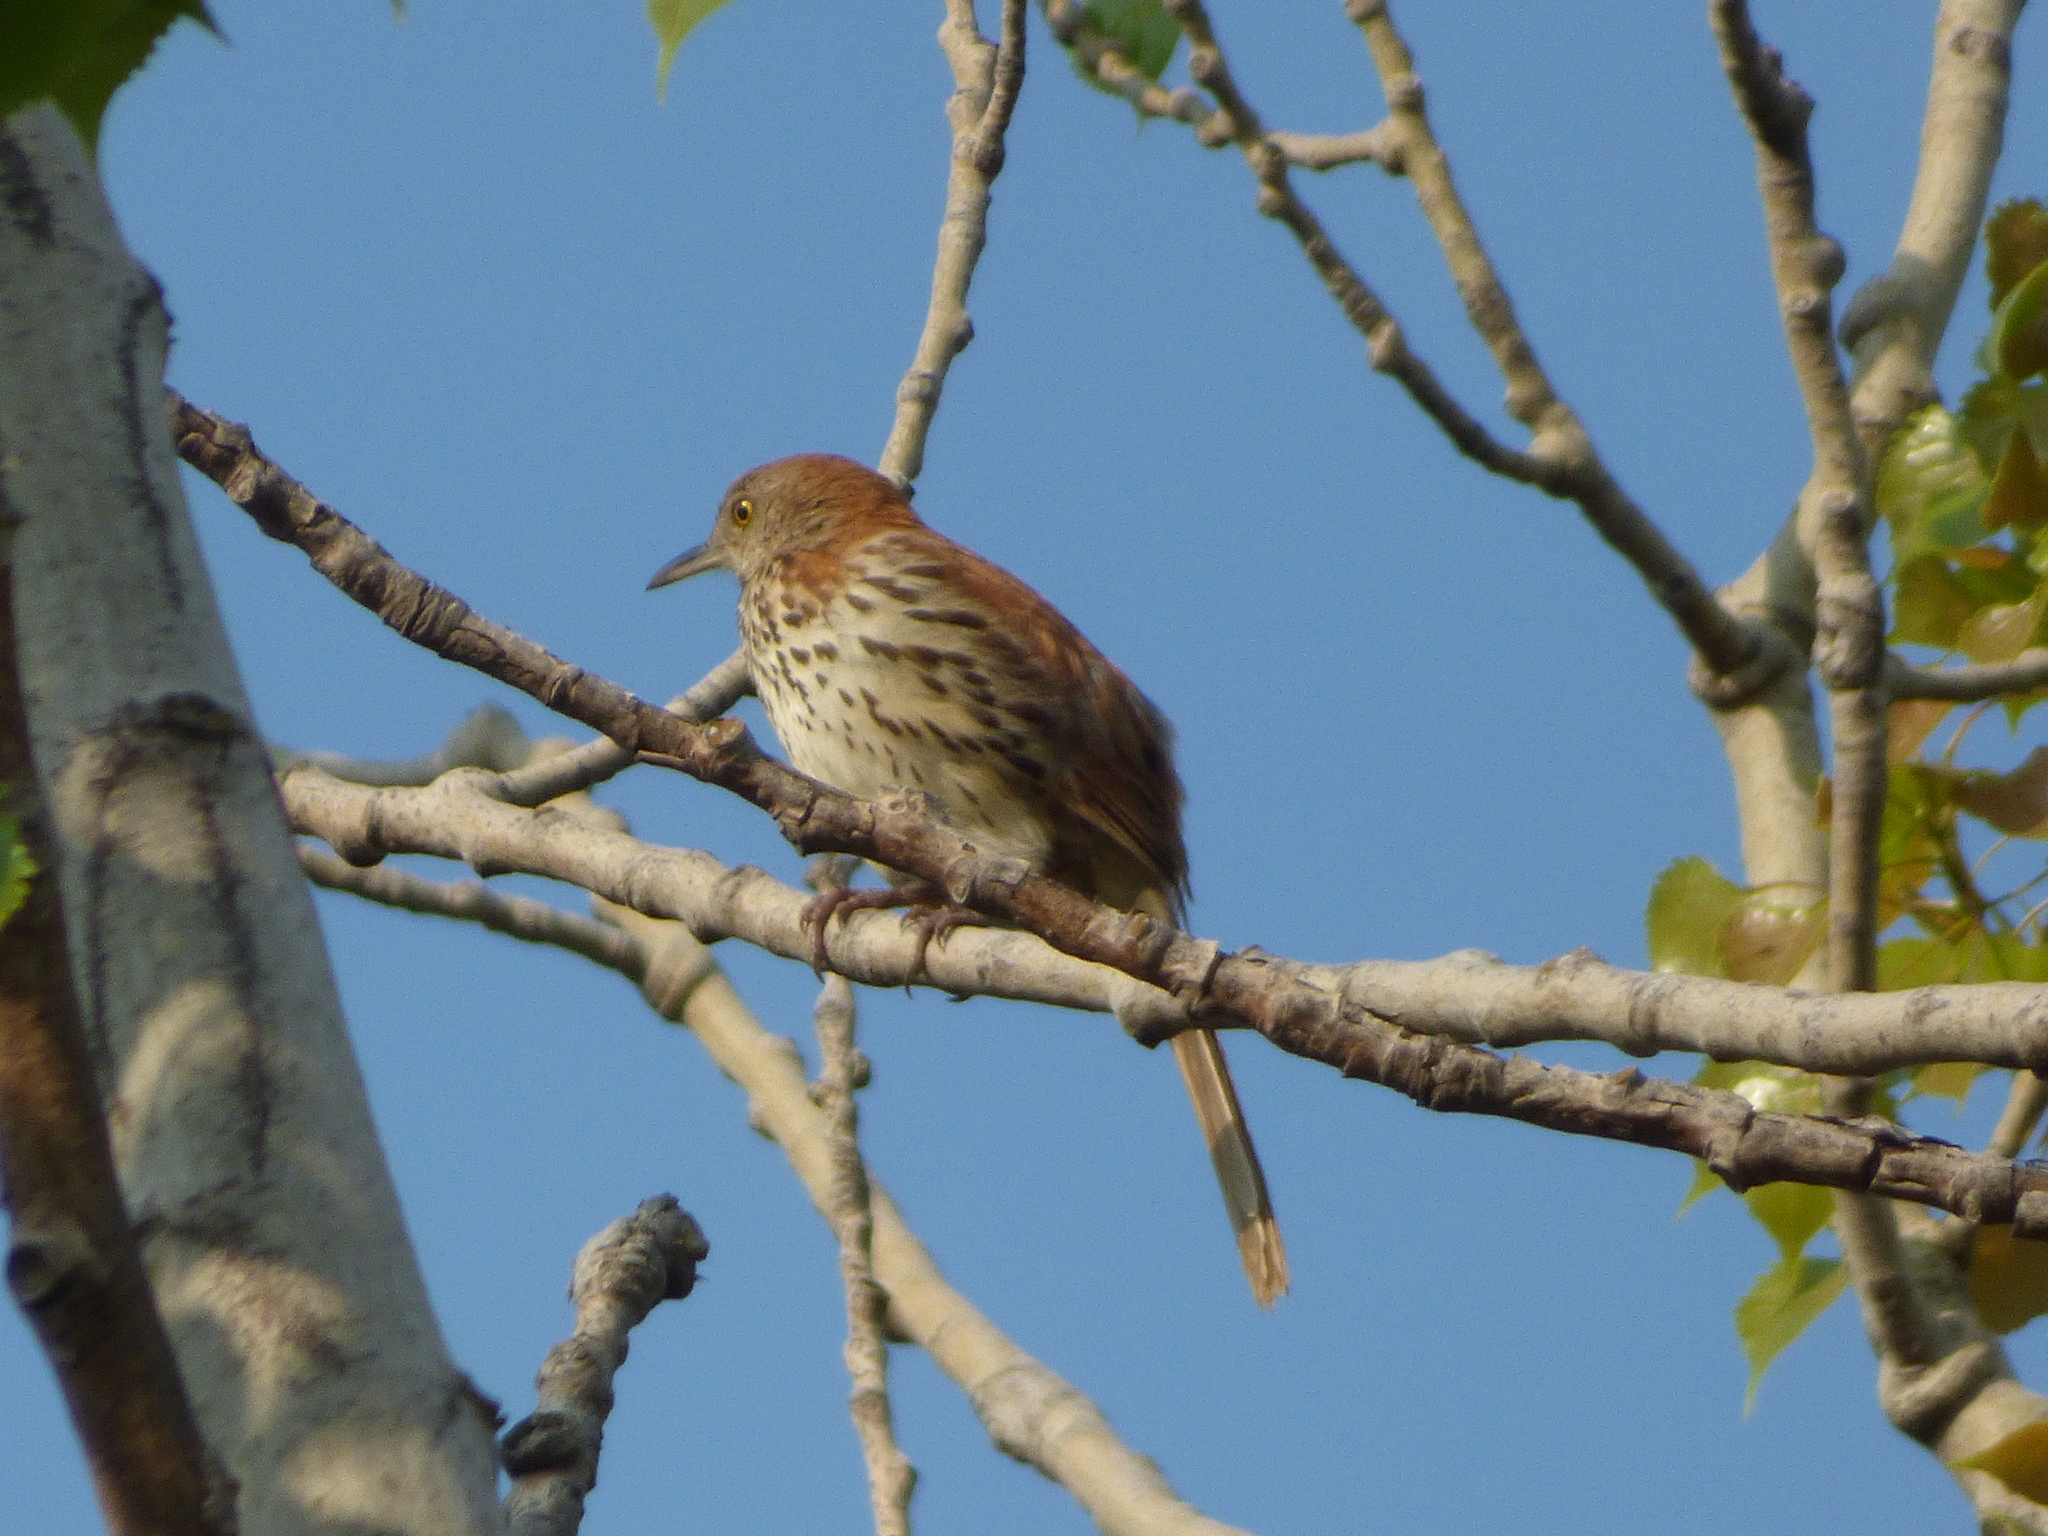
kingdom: Animalia
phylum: Chordata
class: Aves
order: Passeriformes
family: Mimidae
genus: Toxostoma
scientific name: Toxostoma rufum
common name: Brown thrasher
